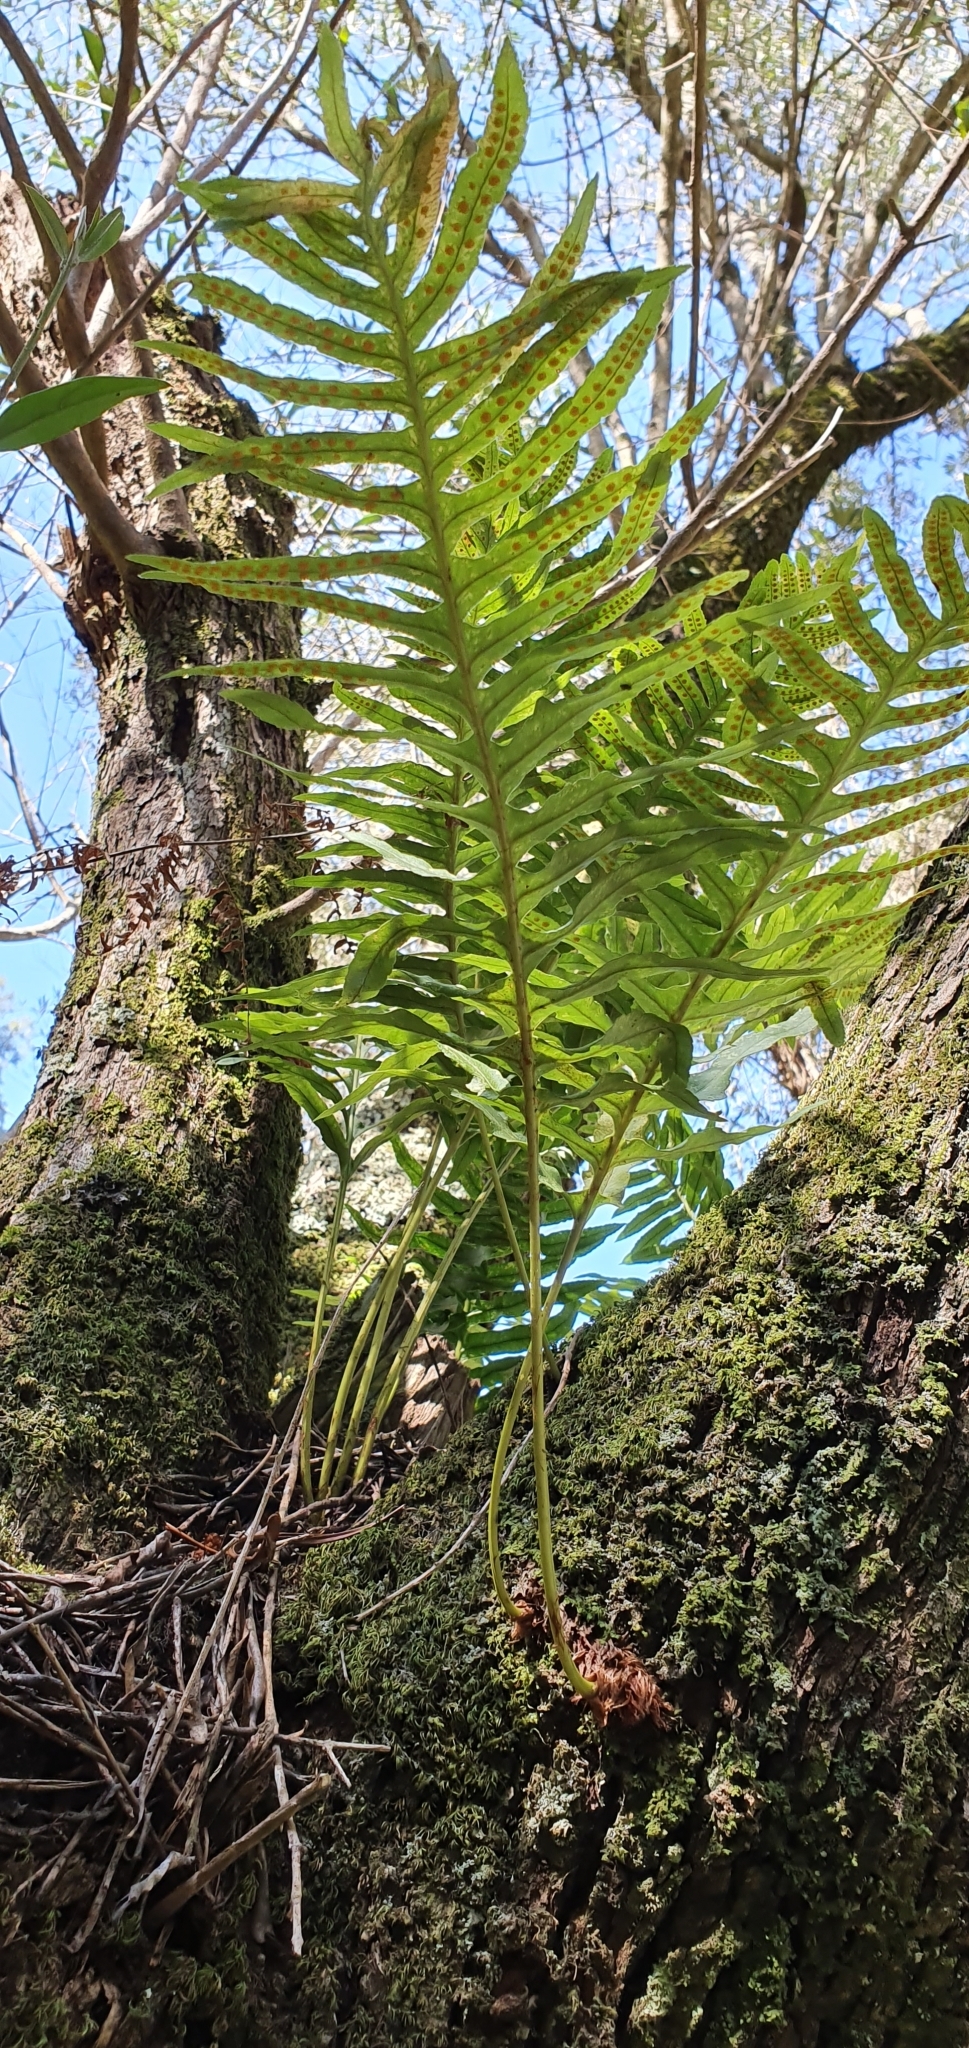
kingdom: Plantae
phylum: Tracheophyta
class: Polypodiopsida
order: Polypodiales
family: Polypodiaceae
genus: Polypodium
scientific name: Polypodium cambricum
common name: Southern polypody
